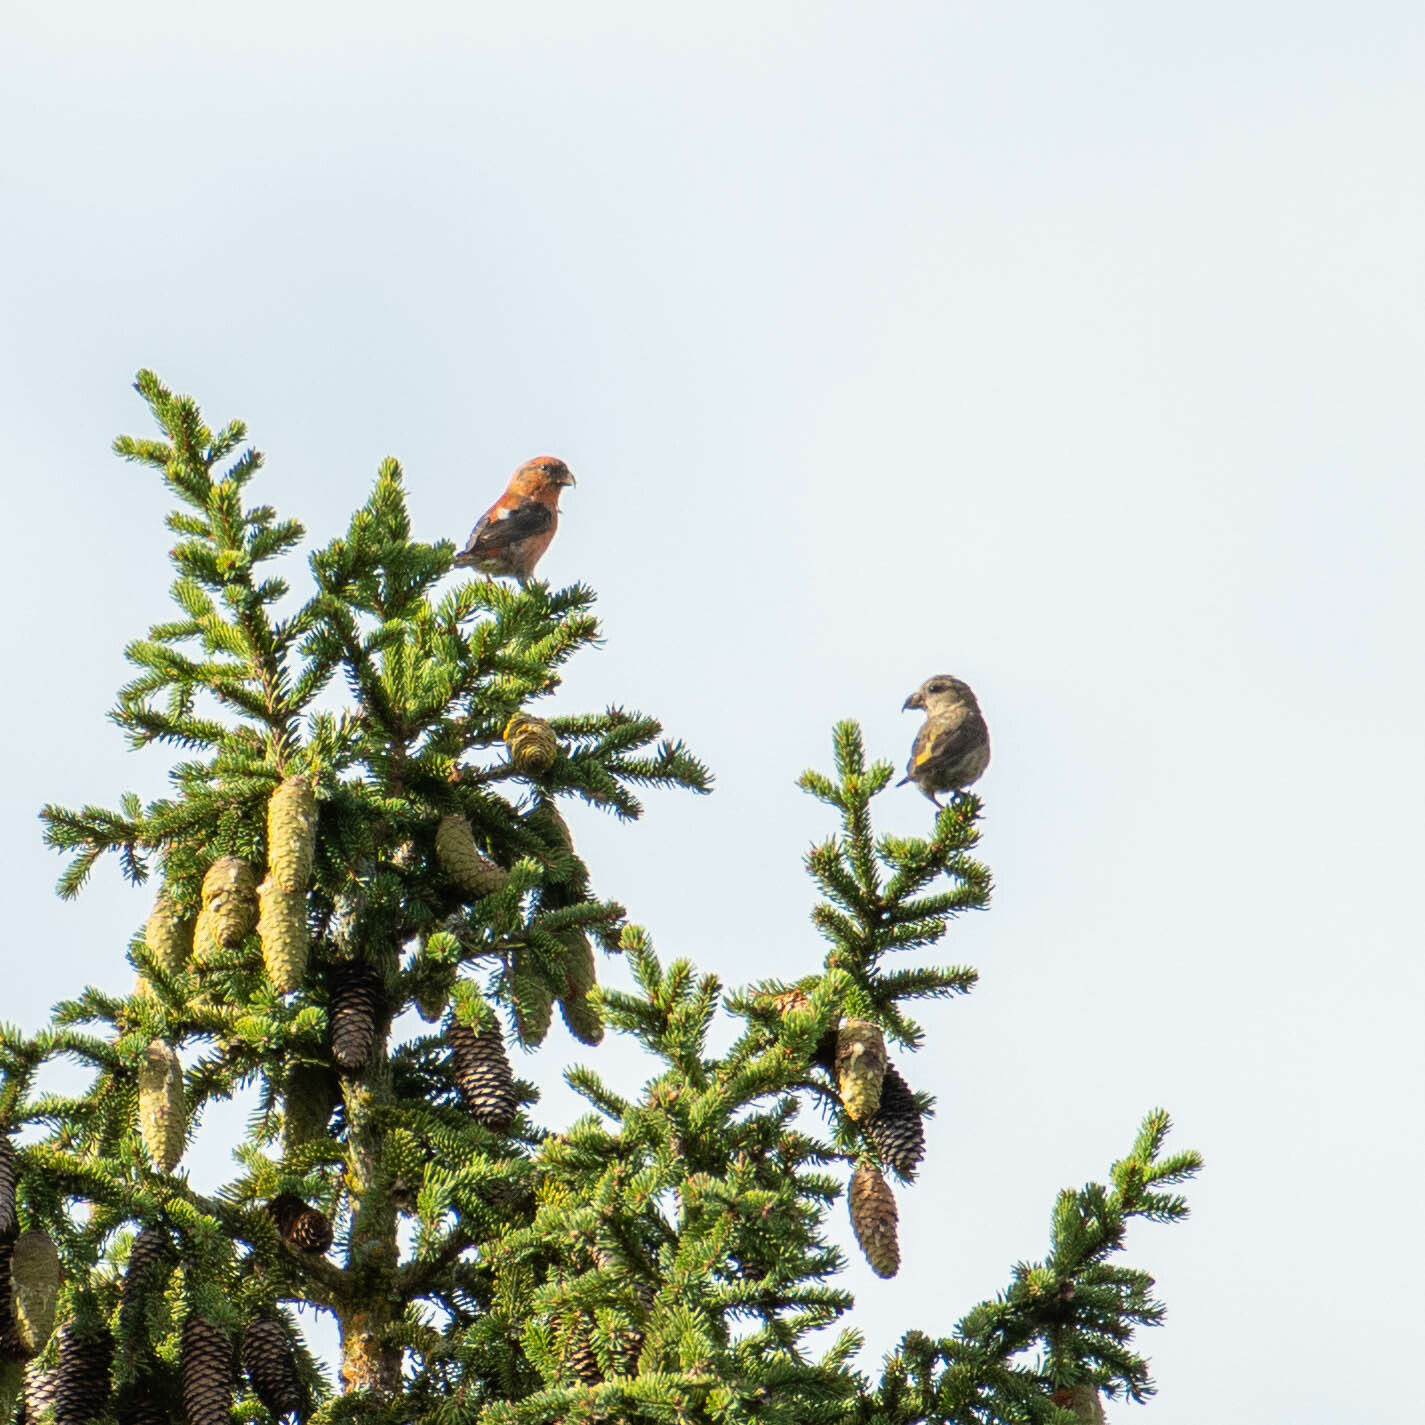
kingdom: Animalia
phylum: Chordata
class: Aves
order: Passeriformes
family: Fringillidae
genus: Loxia
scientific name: Loxia curvirostra
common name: Red crossbill
